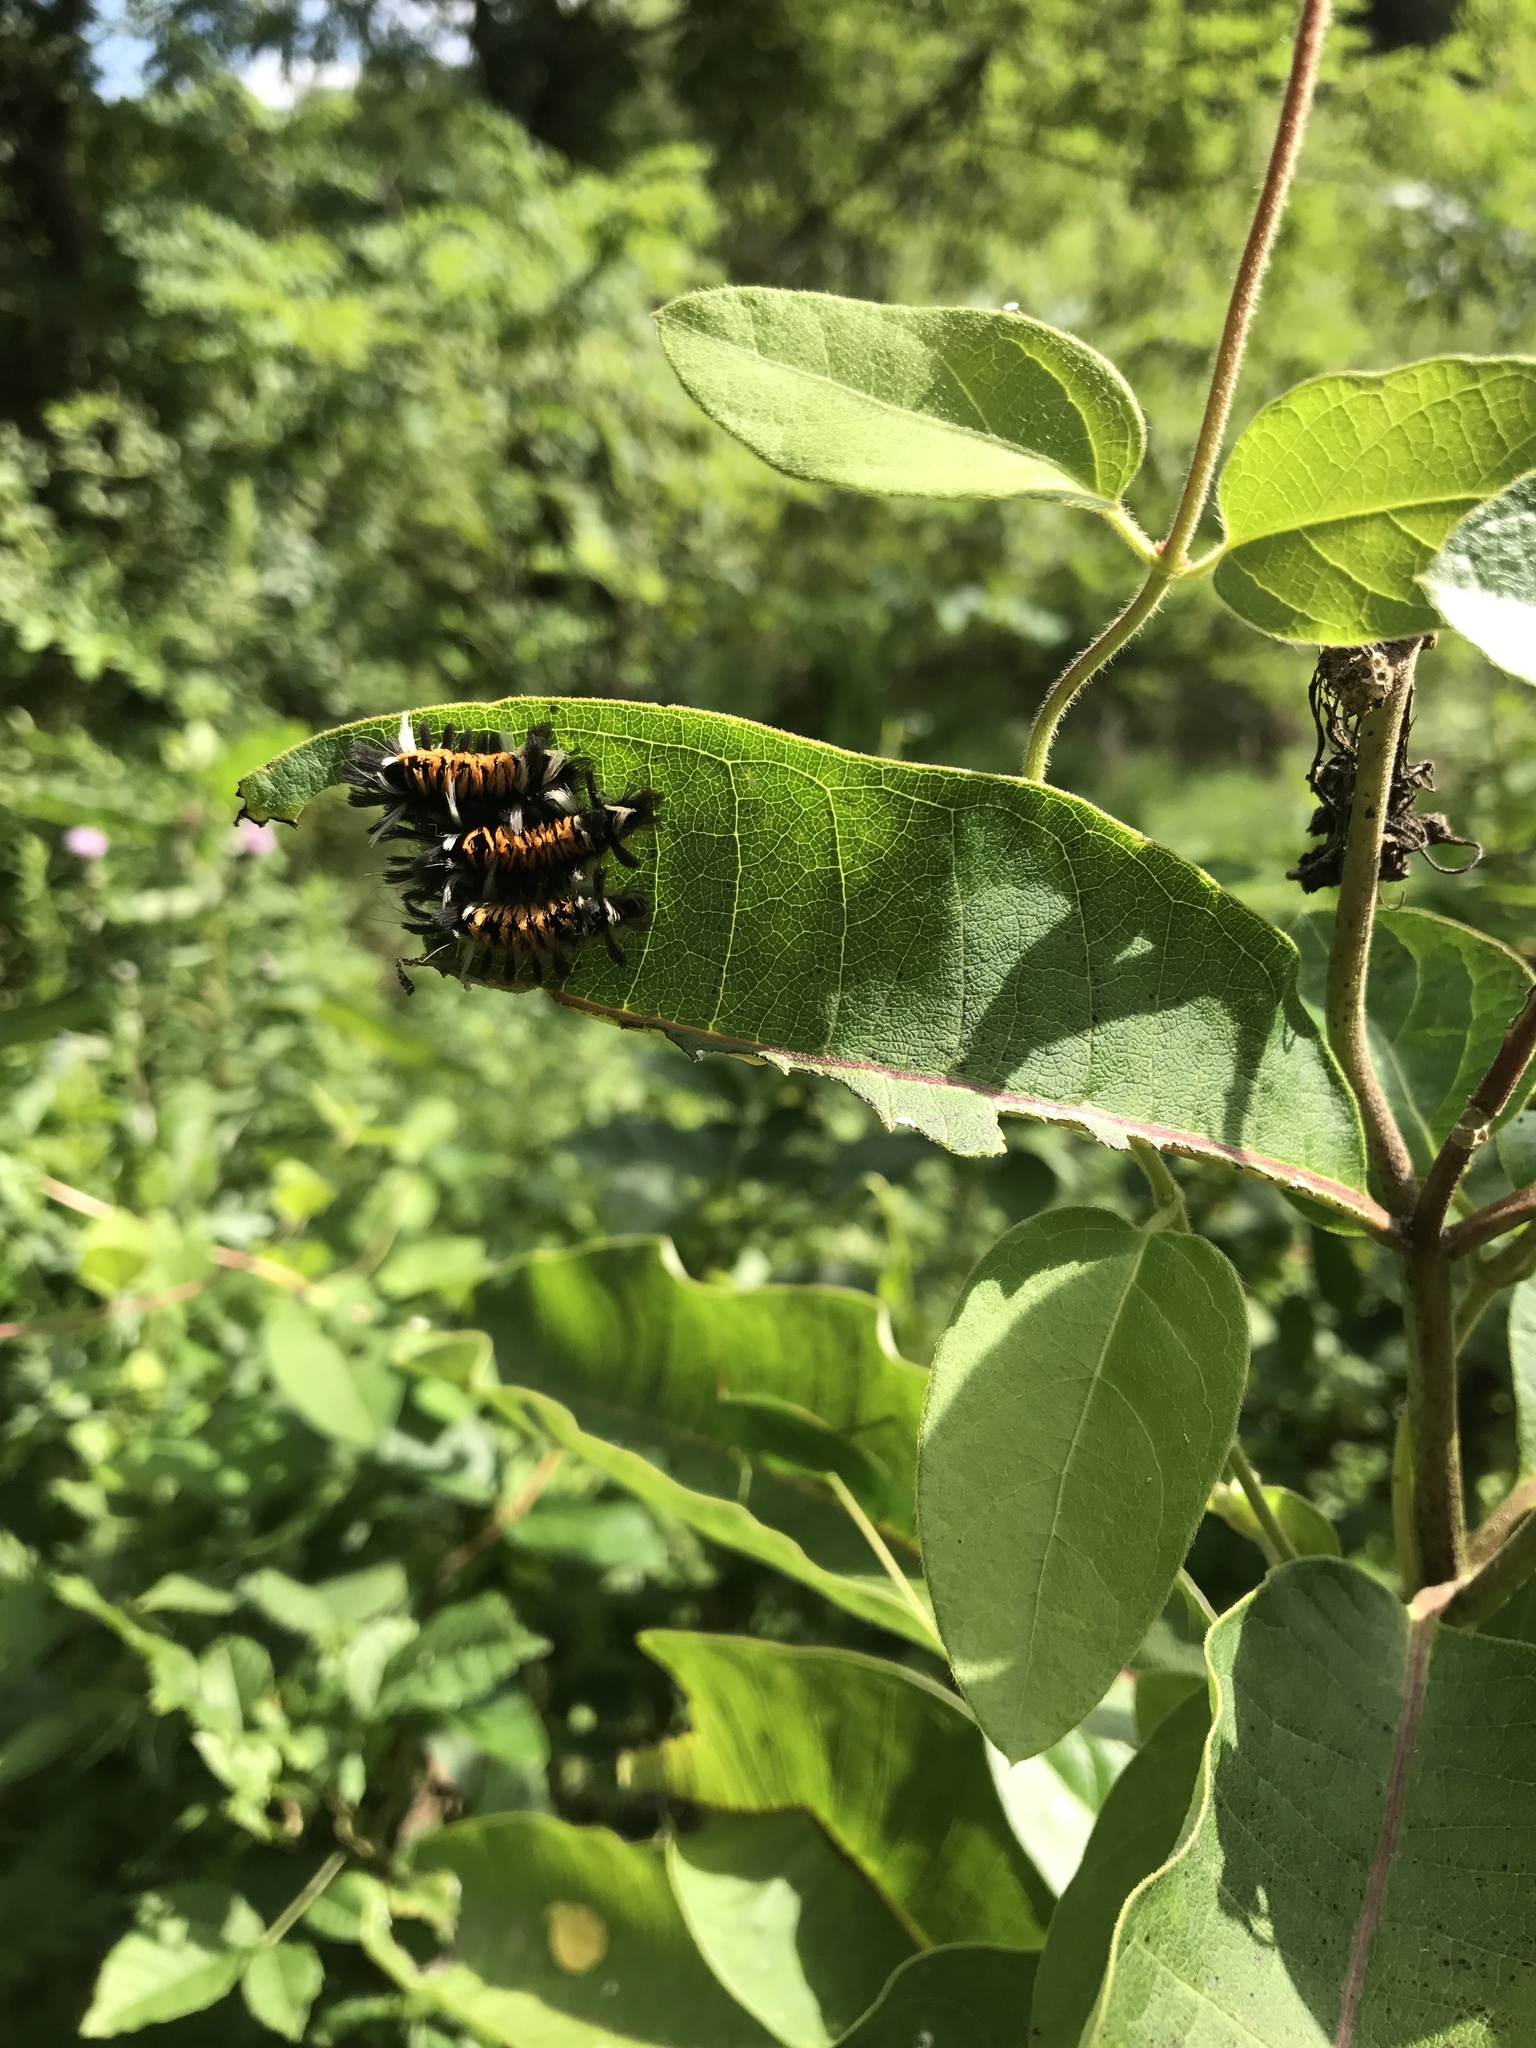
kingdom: Animalia
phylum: Arthropoda
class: Insecta
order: Lepidoptera
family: Erebidae
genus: Euchaetes
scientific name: Euchaetes egle
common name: Milkweed tussock moth
